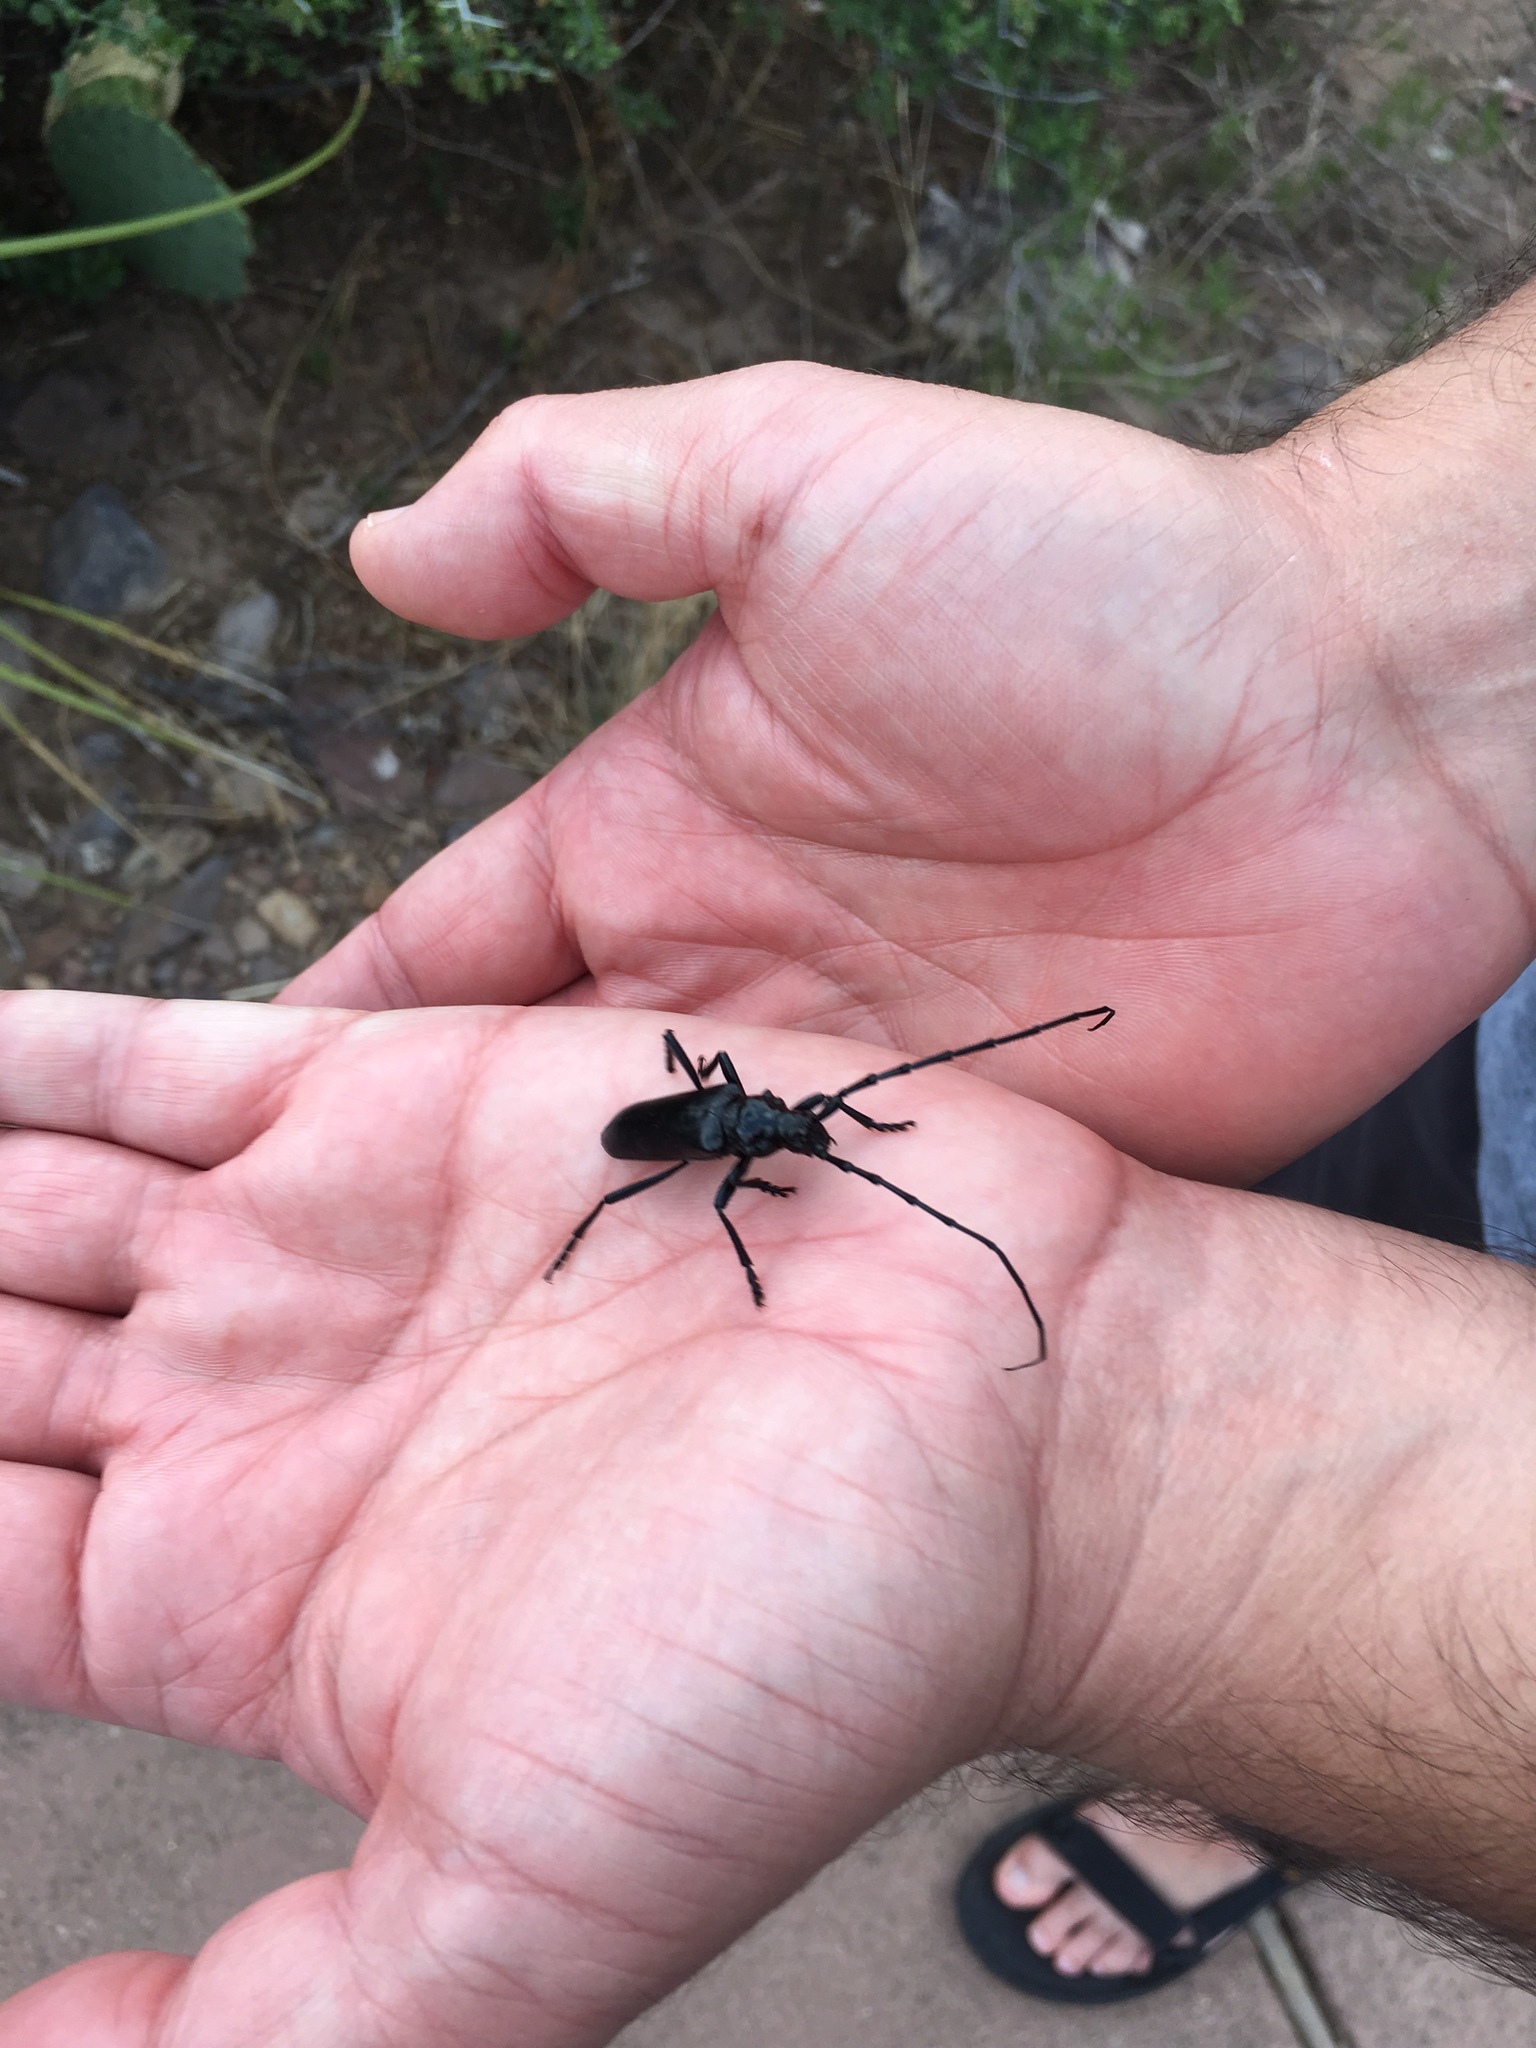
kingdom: Animalia
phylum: Arthropoda
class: Insecta
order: Coleoptera
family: Cerambycidae
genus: Stenaspis
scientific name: Stenaspis solitaria
